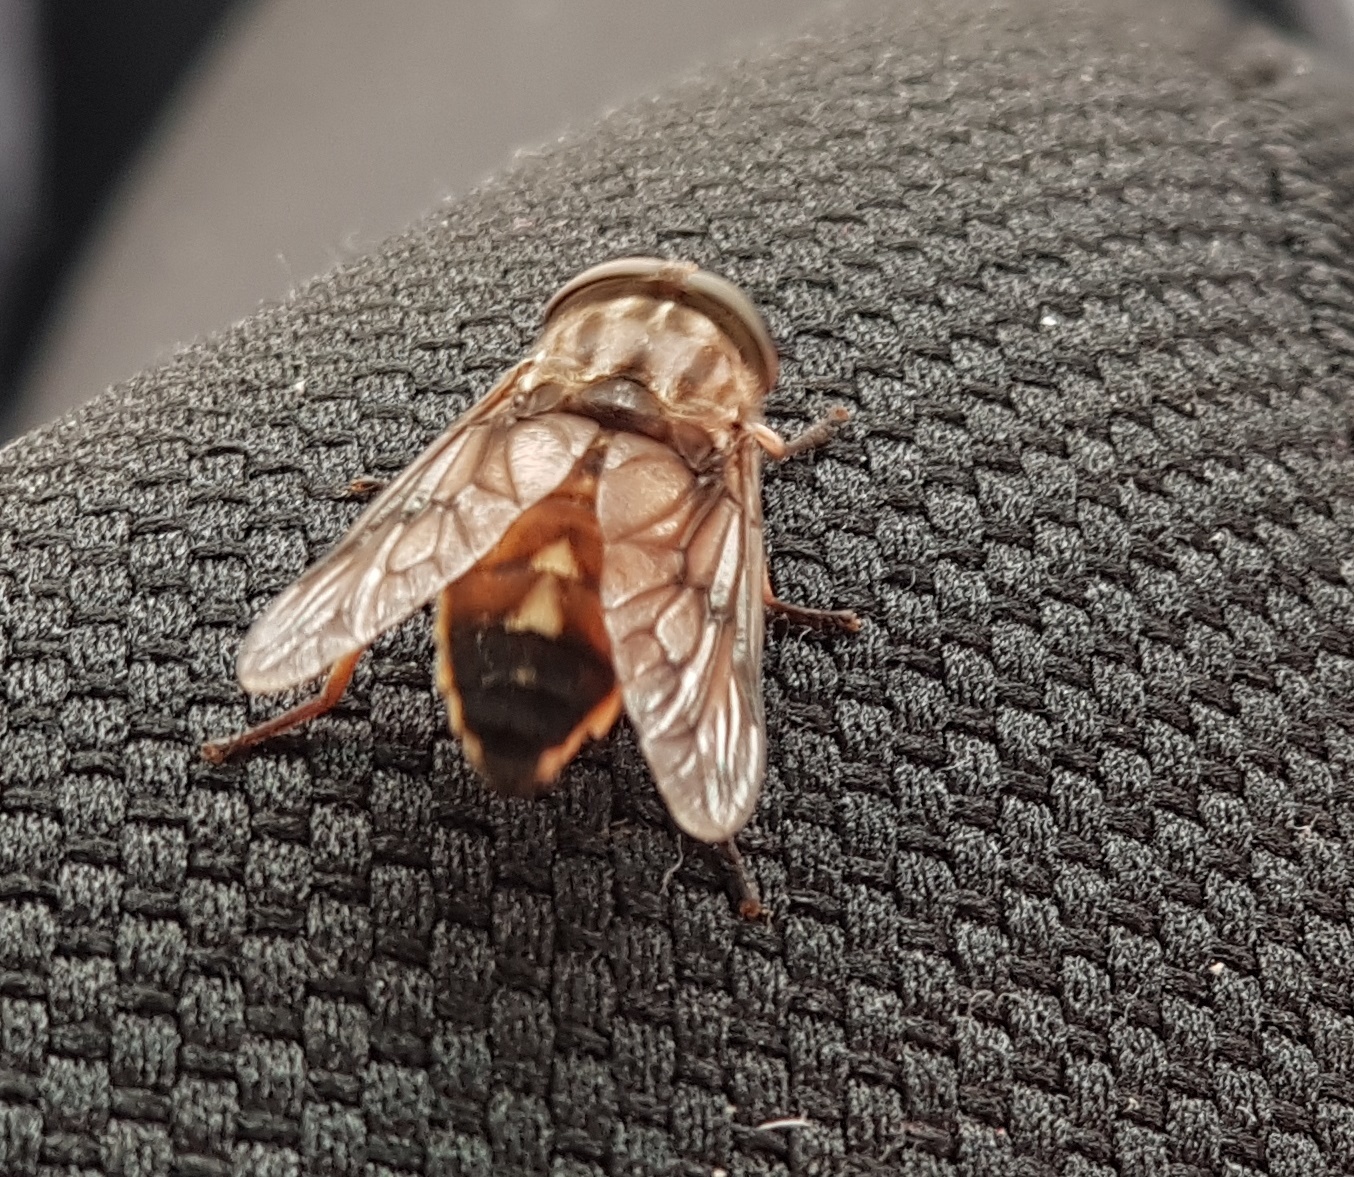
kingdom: Animalia
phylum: Arthropoda
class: Insecta
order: Diptera
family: Tabanidae
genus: Tabanus
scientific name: Tabanus fraternus
